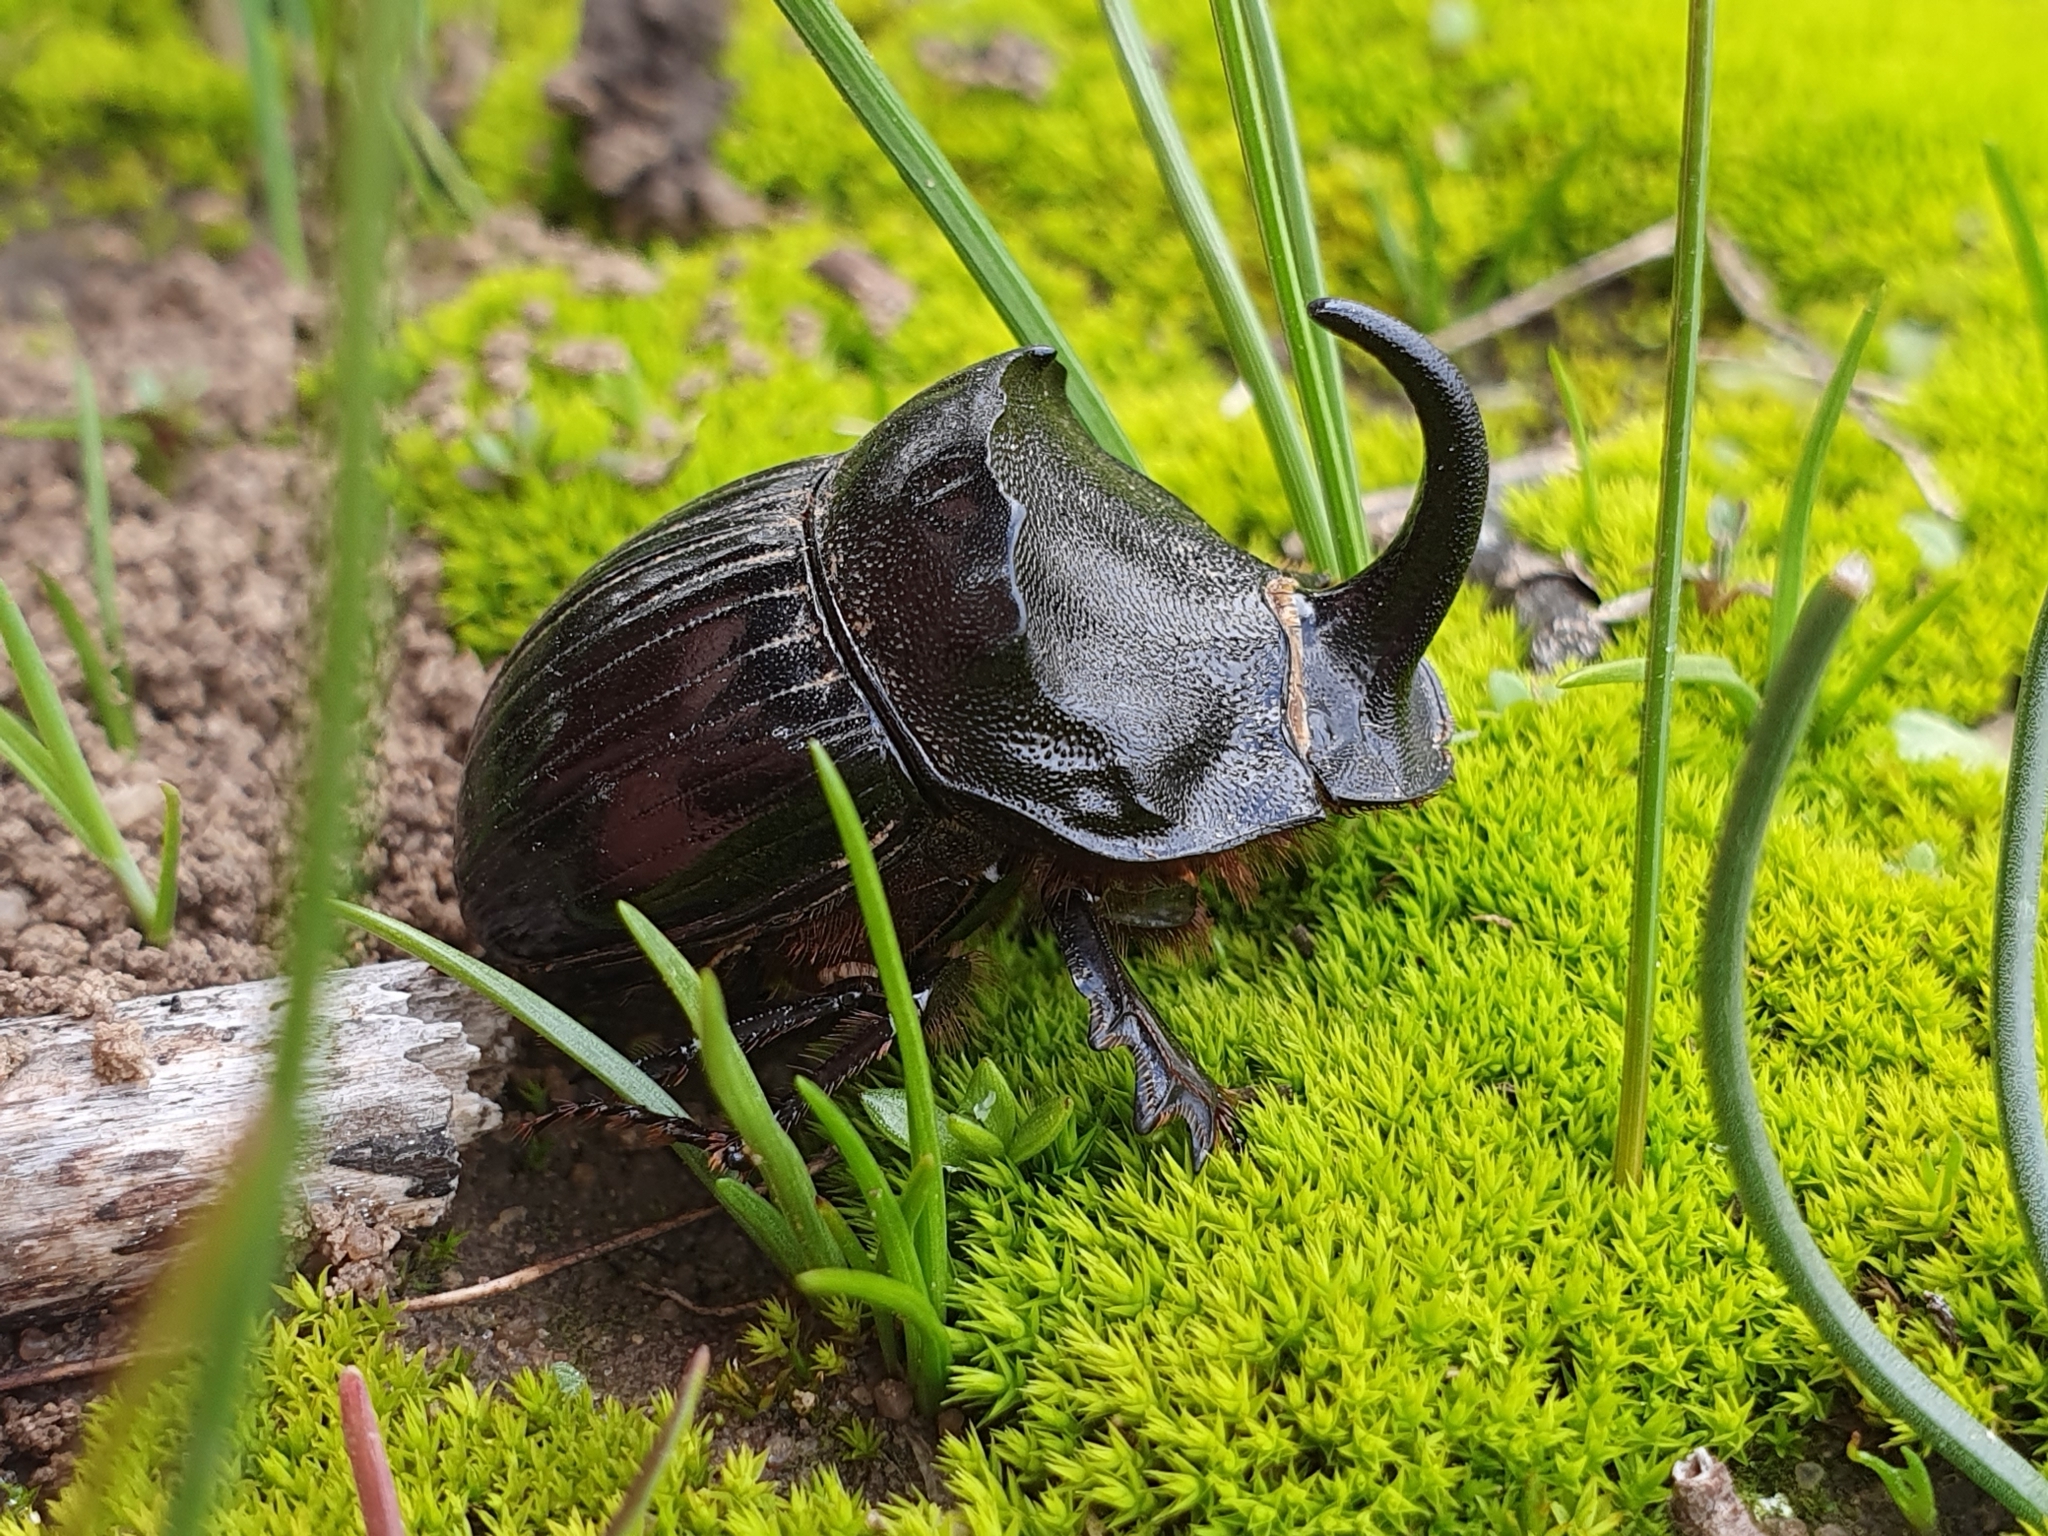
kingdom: Animalia
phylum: Arthropoda
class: Insecta
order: Coleoptera
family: Scarabaeidae
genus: Copris
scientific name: Copris hispanus
